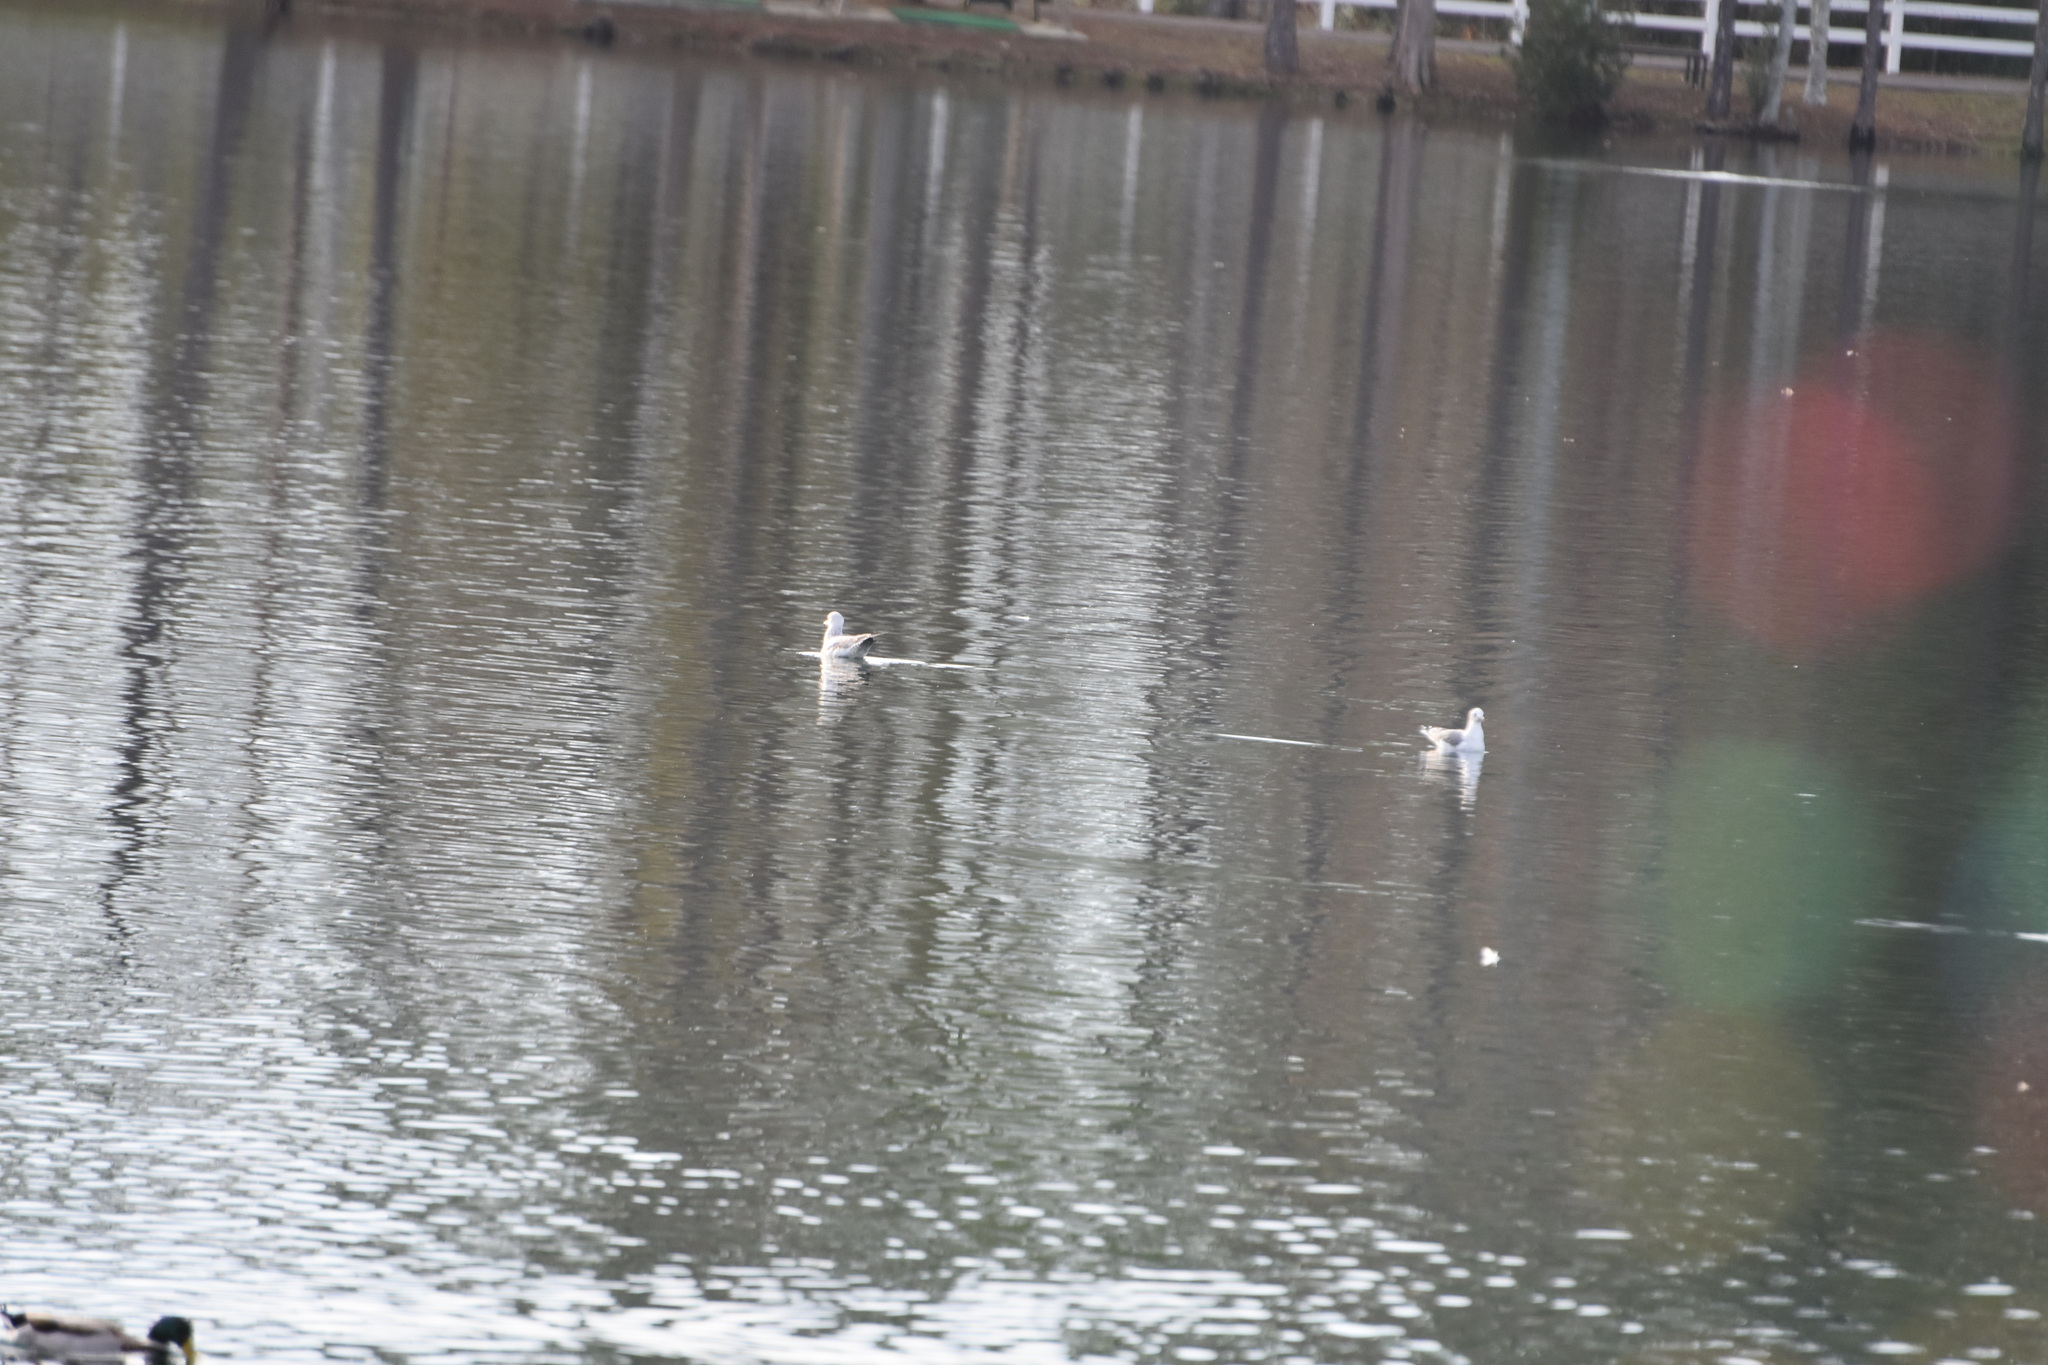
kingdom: Animalia
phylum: Chordata
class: Aves
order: Charadriiformes
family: Laridae
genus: Larus
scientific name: Larus delawarensis
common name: Ring-billed gull
